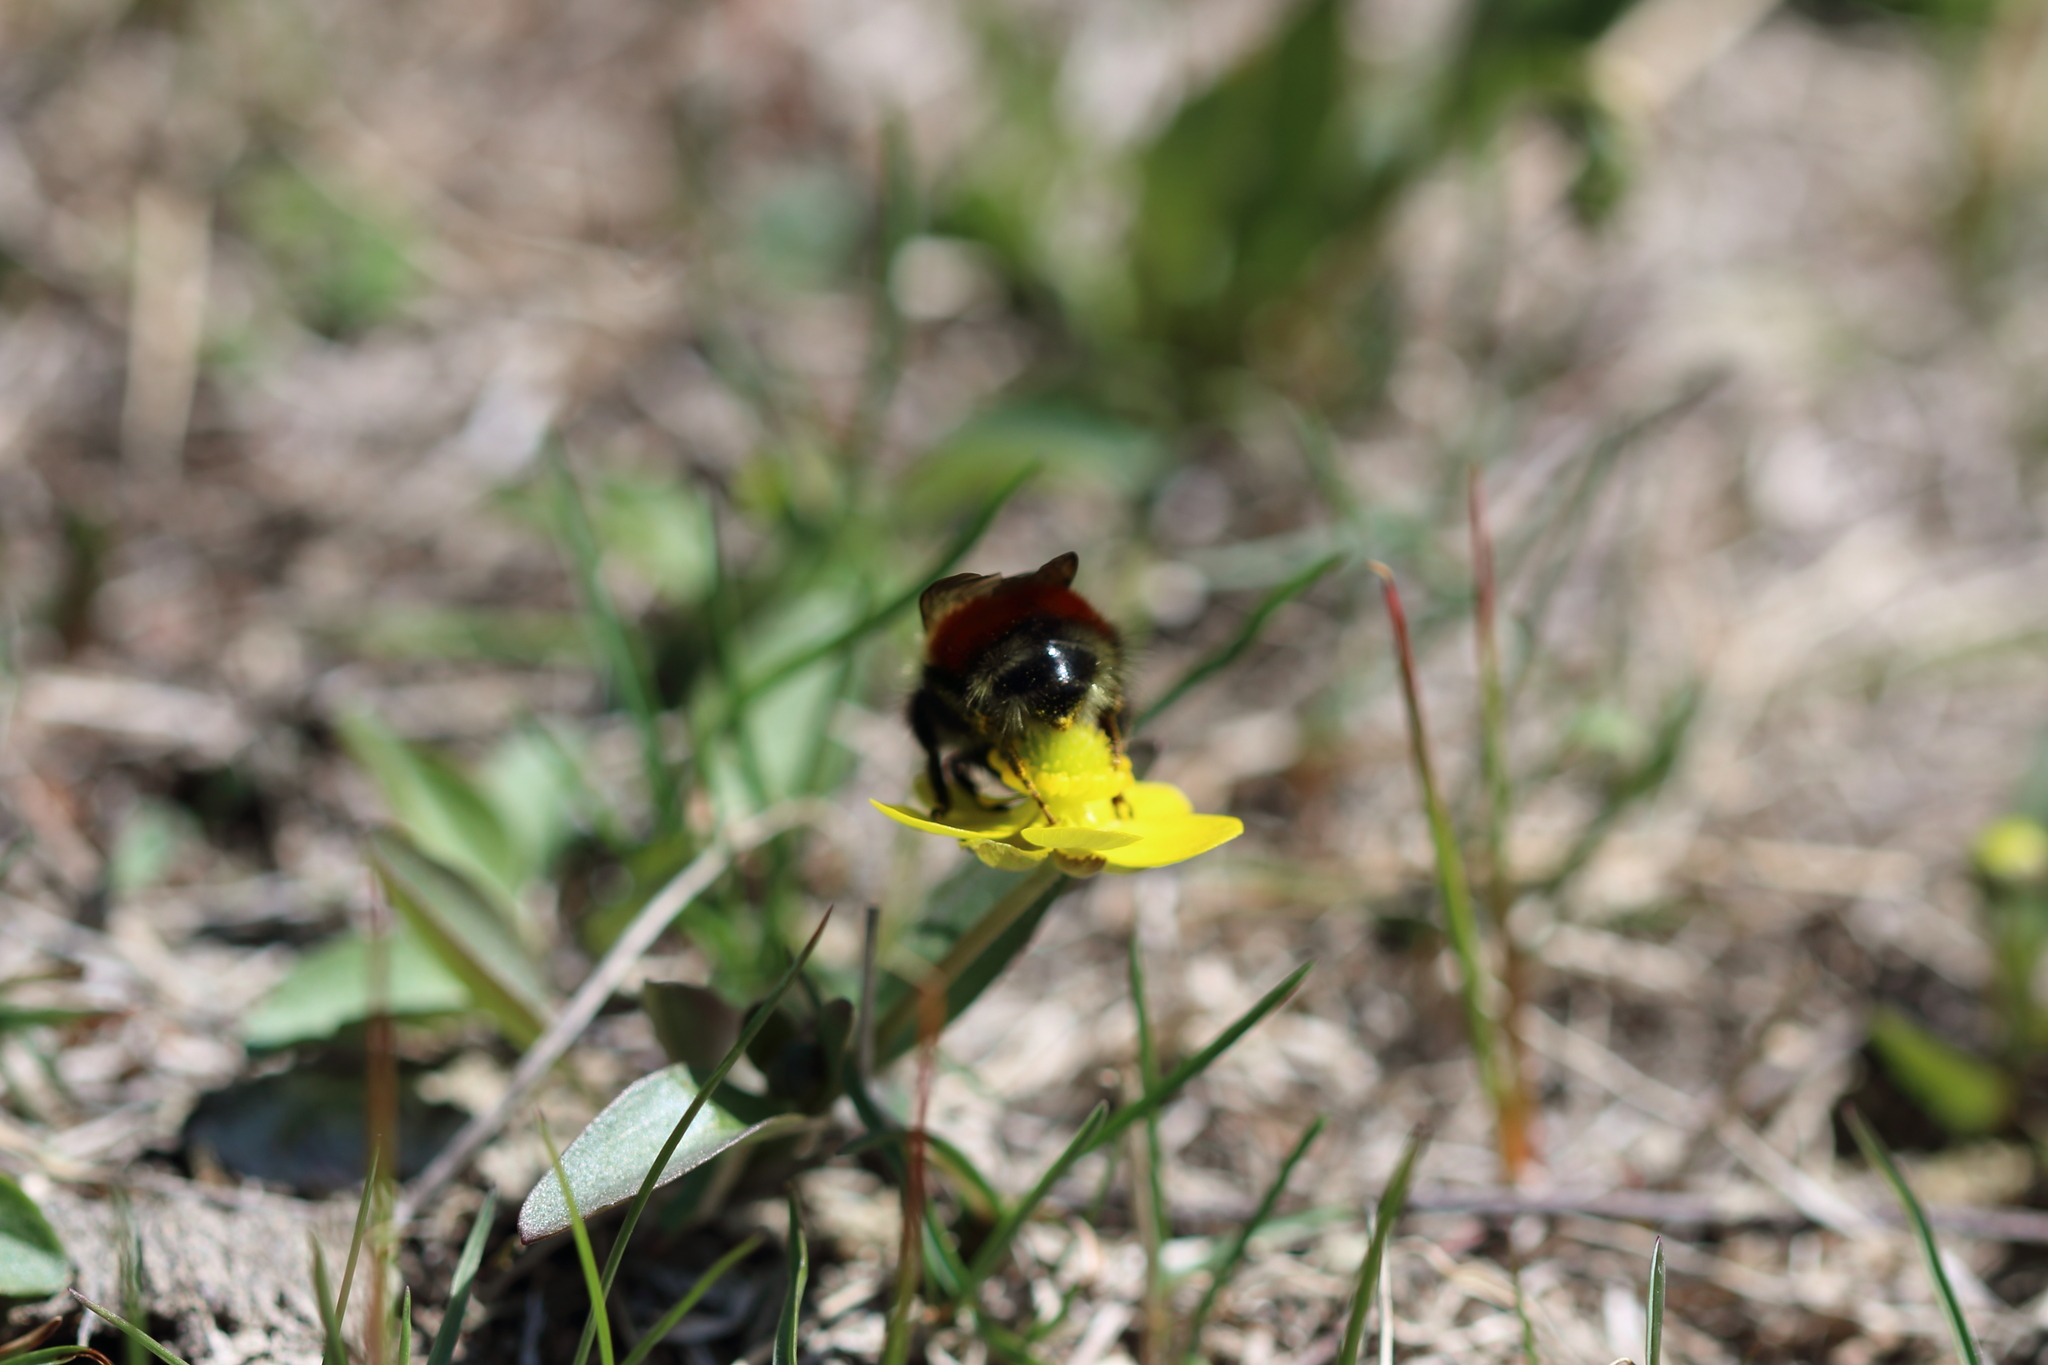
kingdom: Animalia
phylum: Arthropoda
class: Insecta
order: Hymenoptera
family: Apidae
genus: Bombus
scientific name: Bombus melanopygus
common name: Black tail bumble bee
